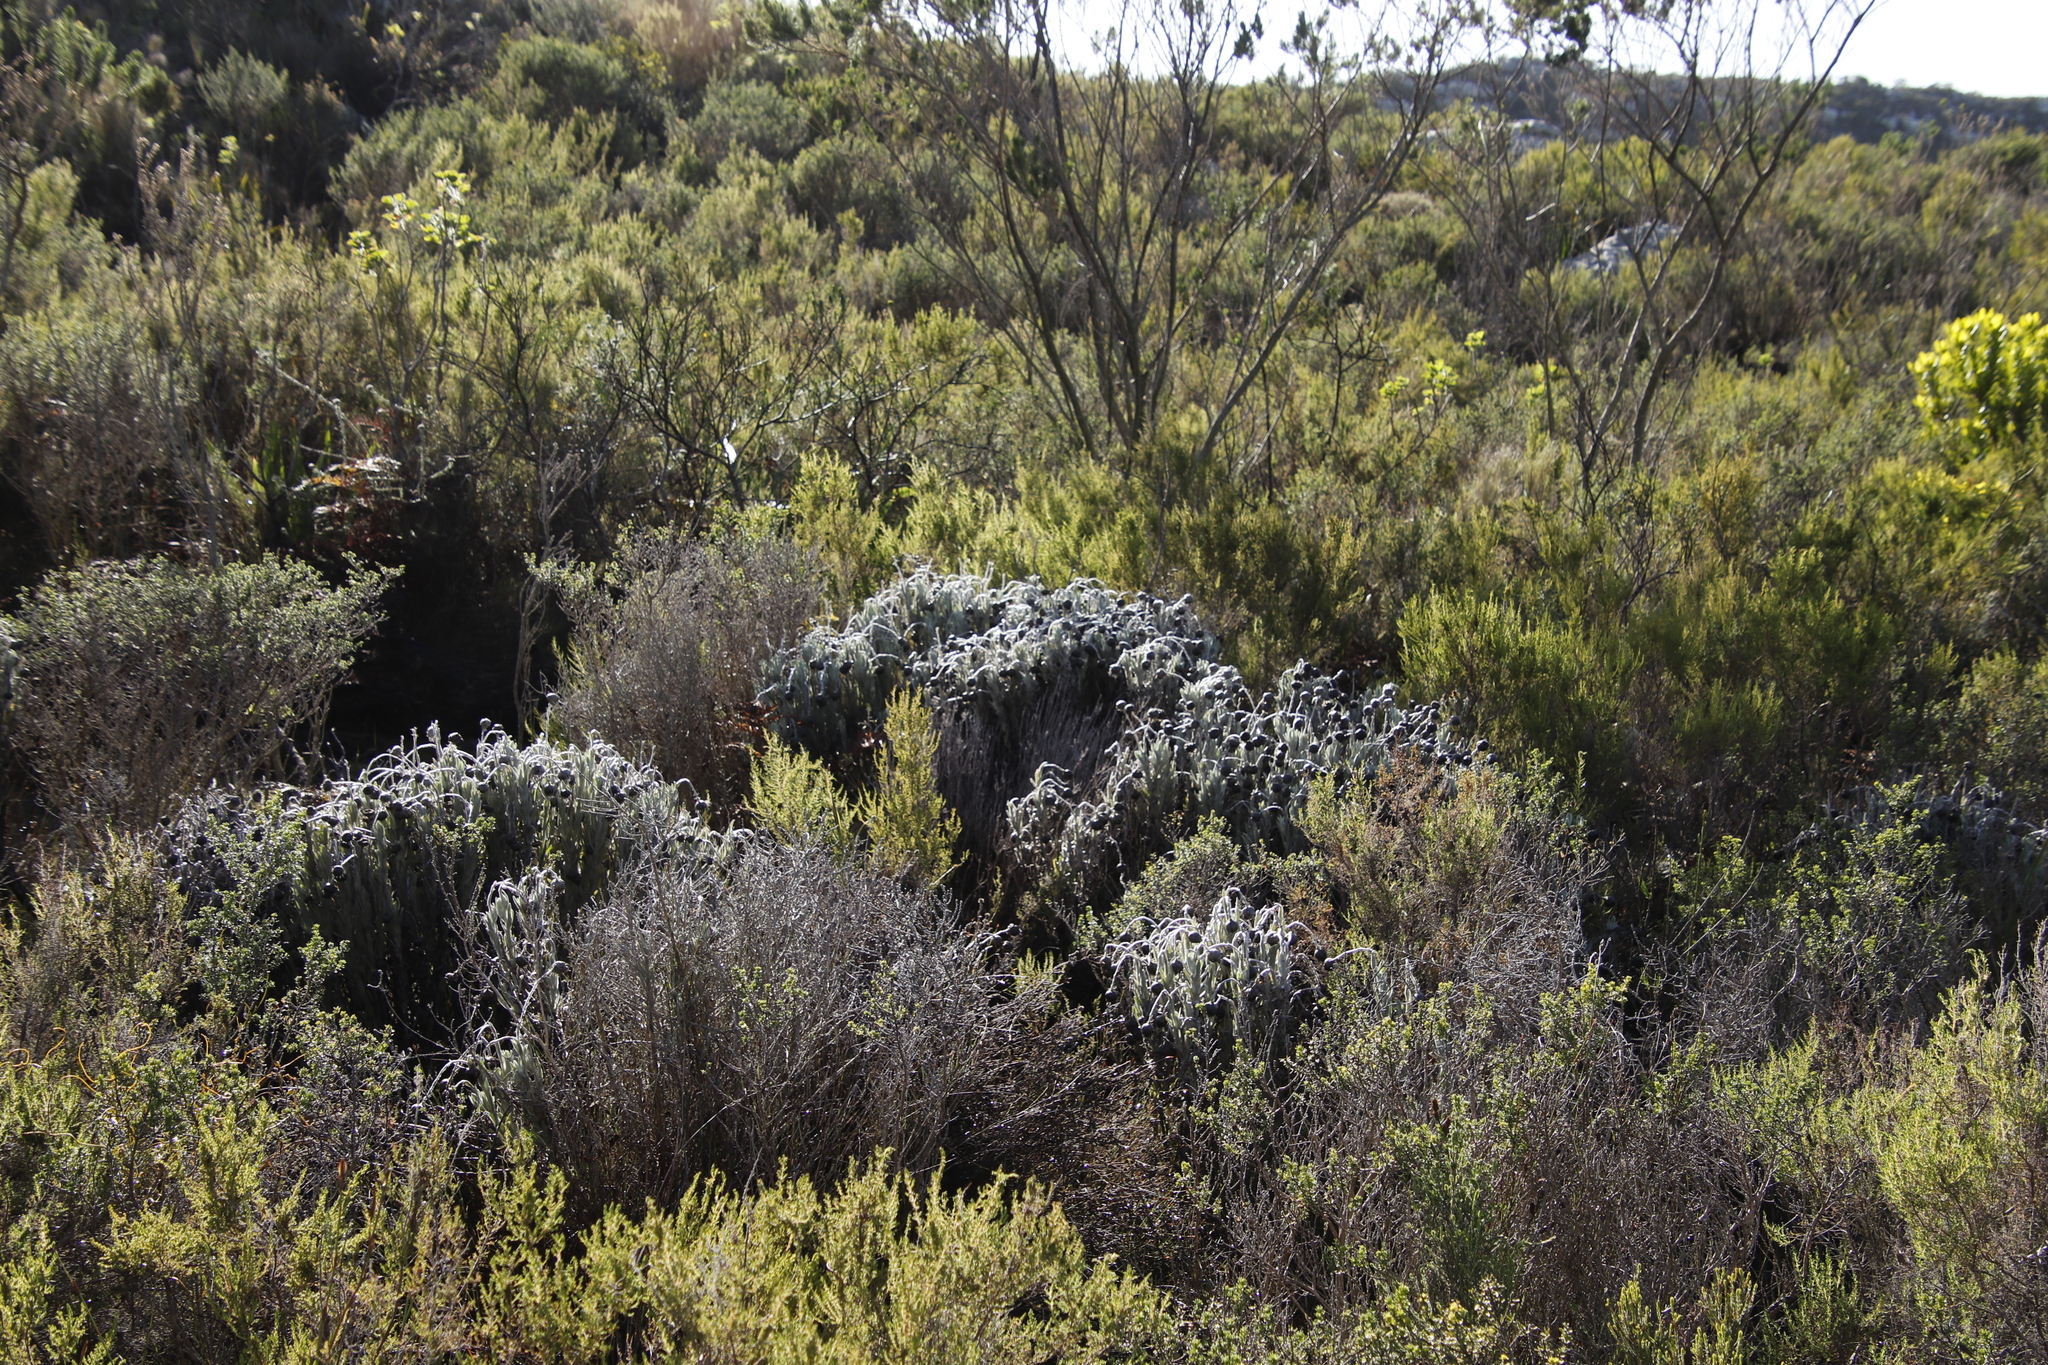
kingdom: Plantae
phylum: Tracheophyta
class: Magnoliopsida
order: Asterales
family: Asteraceae
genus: Syncarpha
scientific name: Syncarpha vestita
